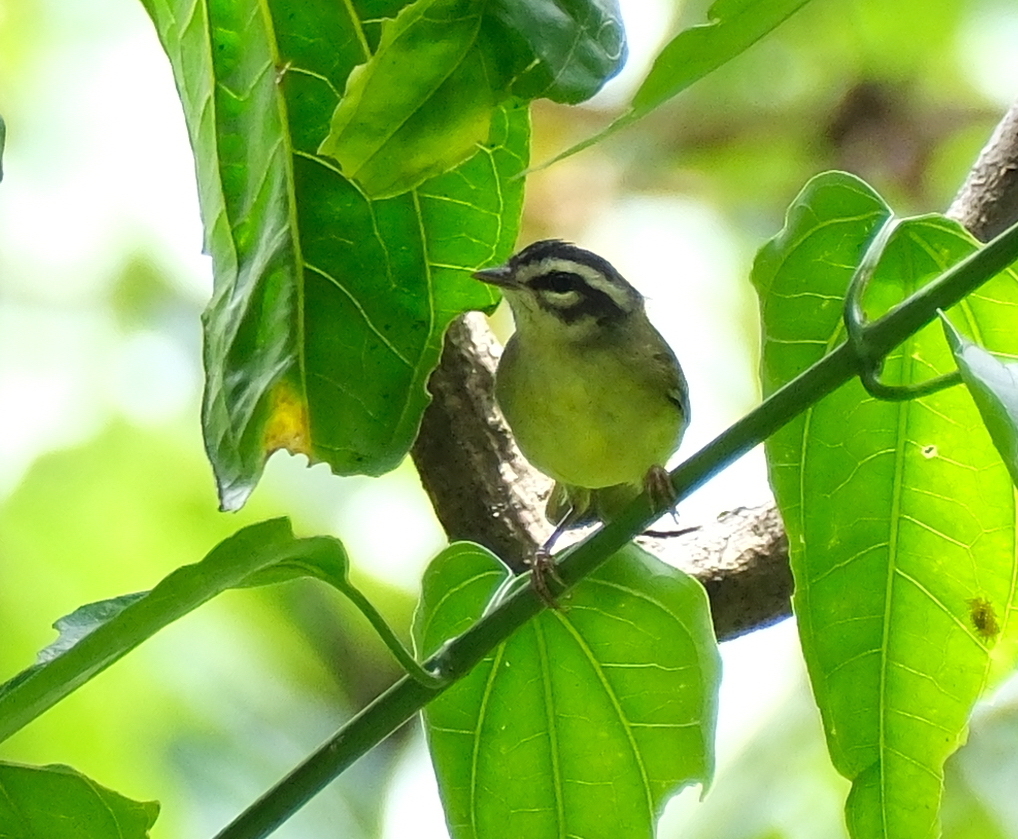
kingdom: Animalia
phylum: Chordata
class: Aves
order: Passeriformes
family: Parulidae
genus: Basileuterus
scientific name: Basileuterus tristriatus
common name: Three-striped warbler
